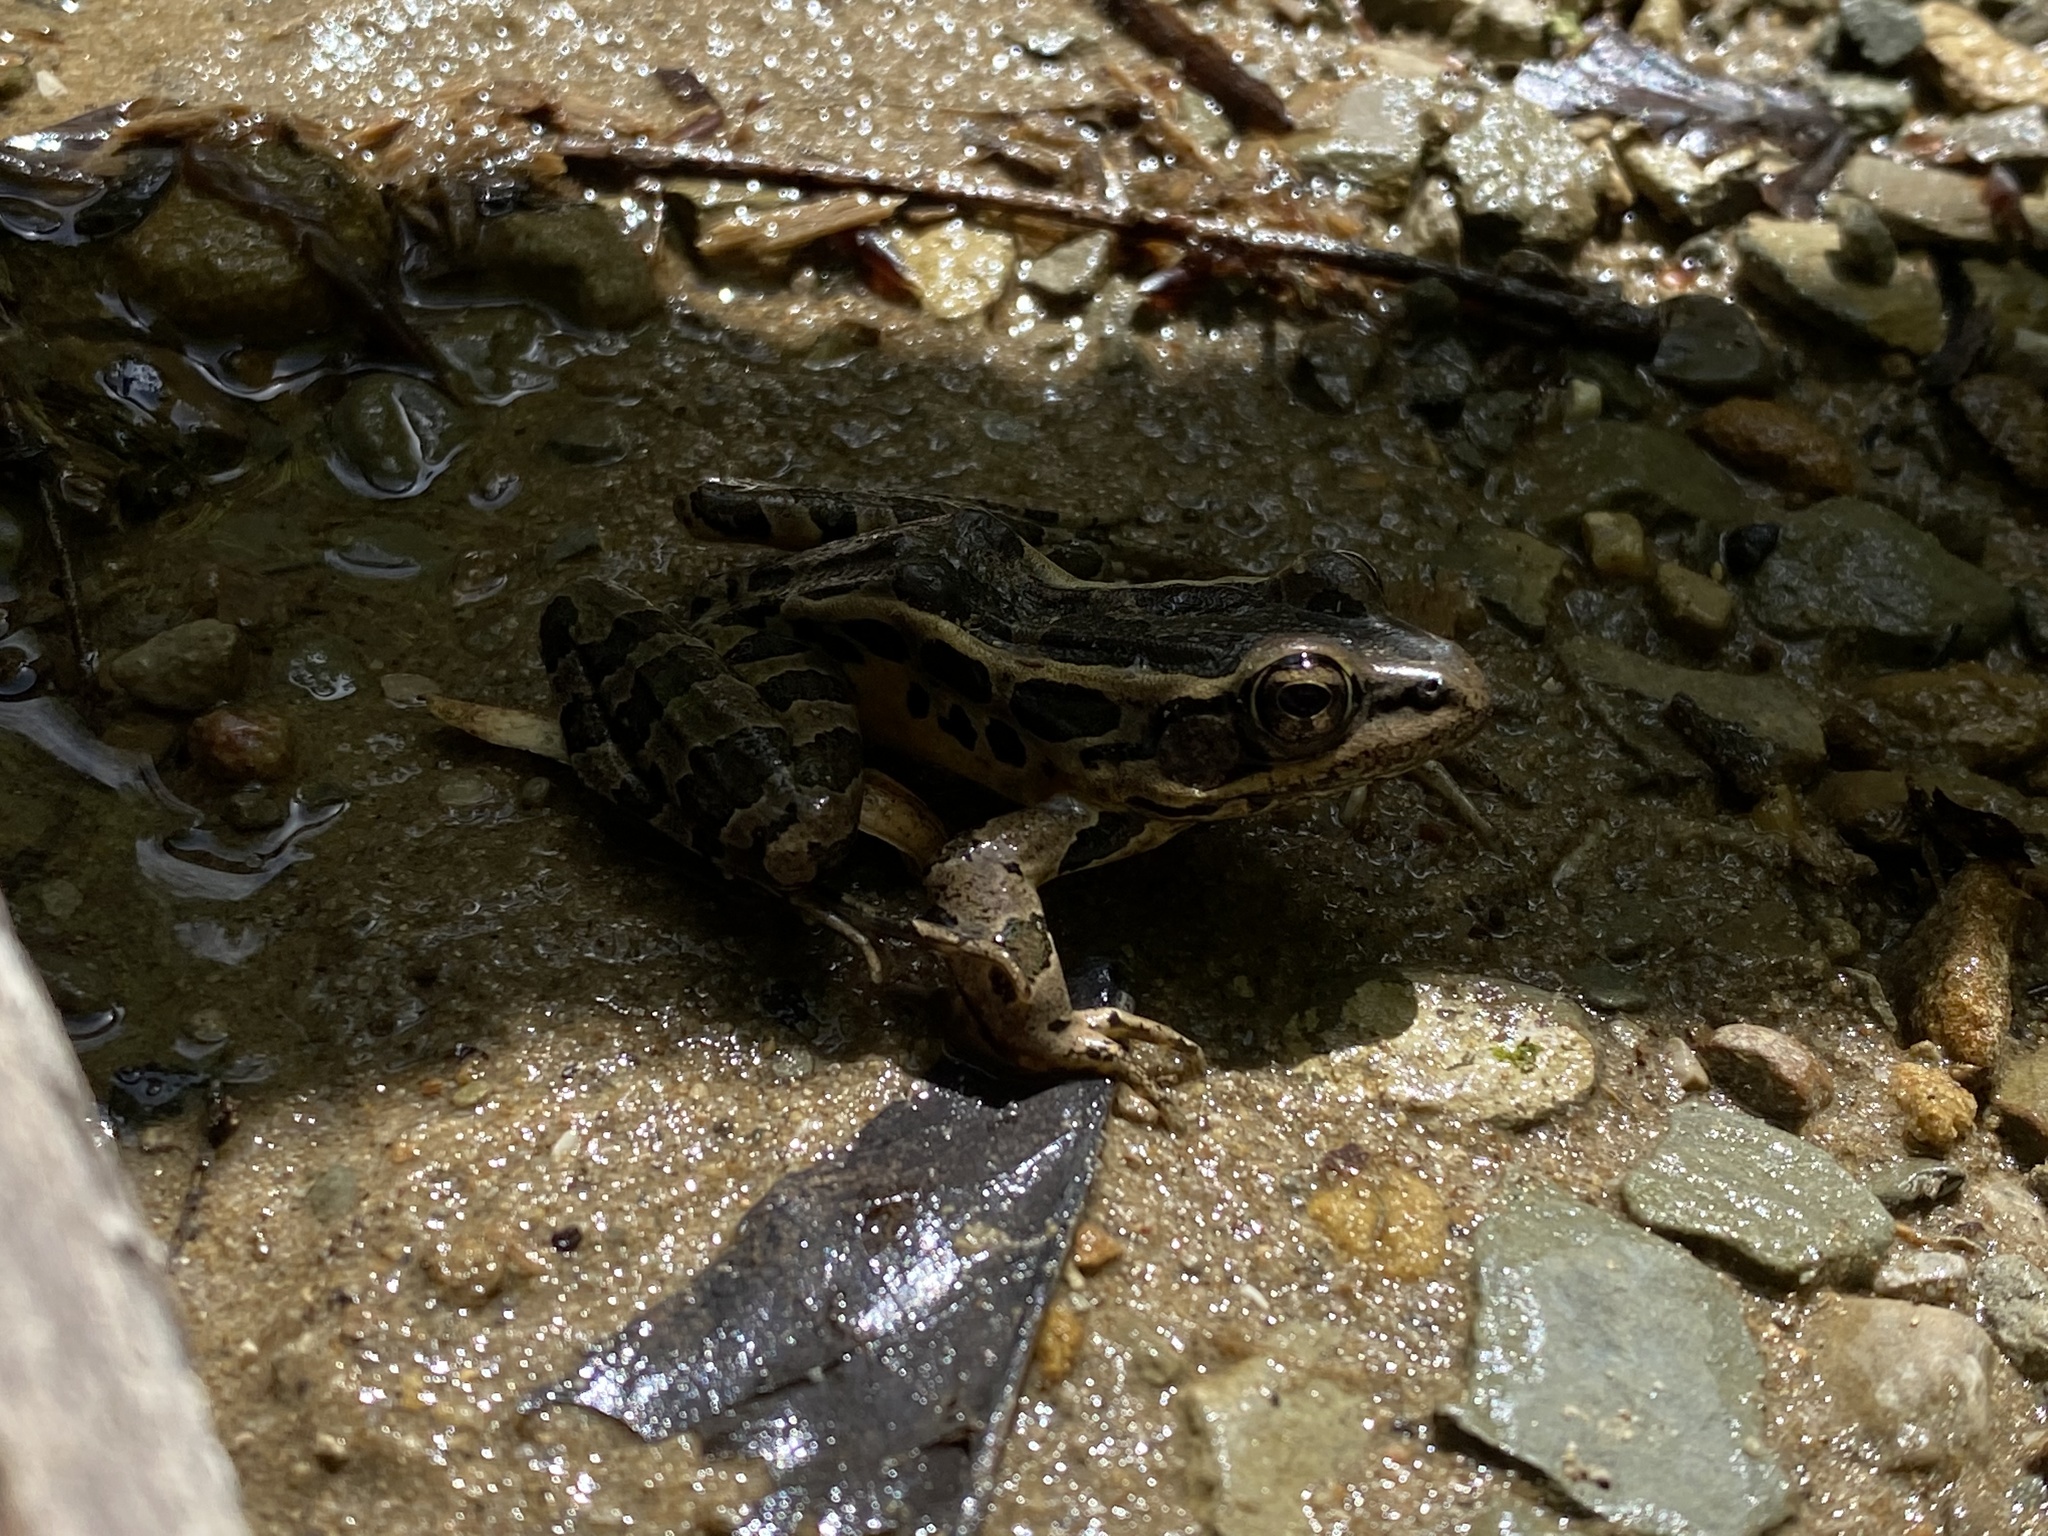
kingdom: Animalia
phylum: Chordata
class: Amphibia
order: Anura
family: Ranidae
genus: Lithobates
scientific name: Lithobates palustris
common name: Pickerel frog
